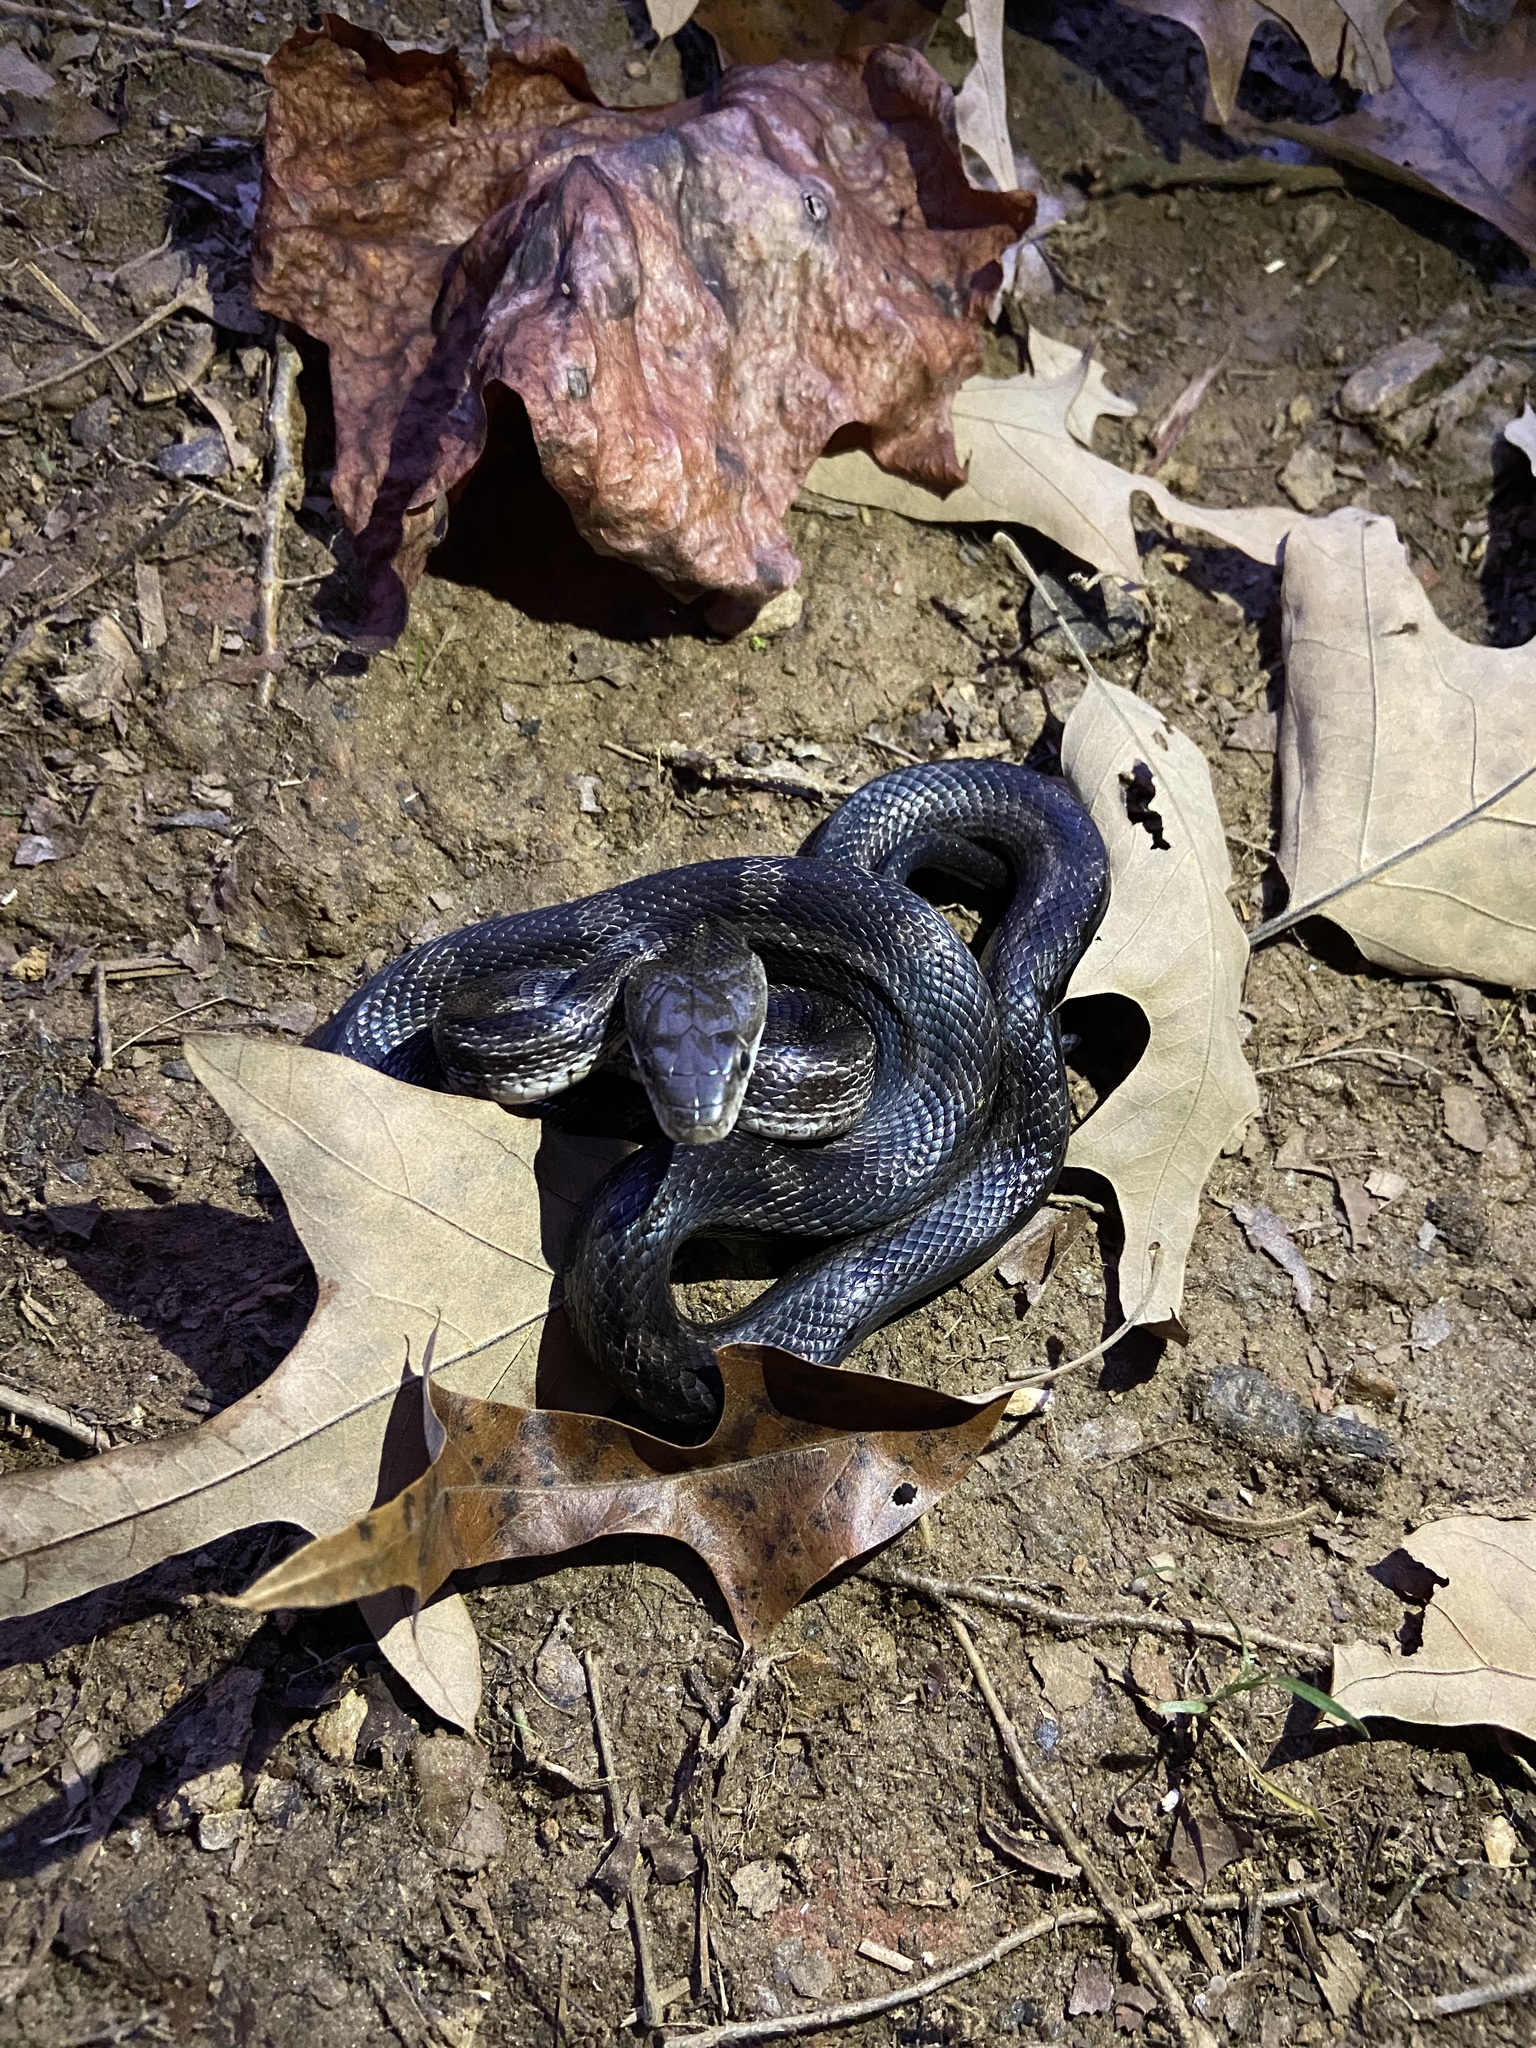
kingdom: Animalia
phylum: Chordata
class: Squamata
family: Colubridae
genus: Pantherophis
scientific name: Pantherophis alleghaniensis
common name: Eastern rat snake
